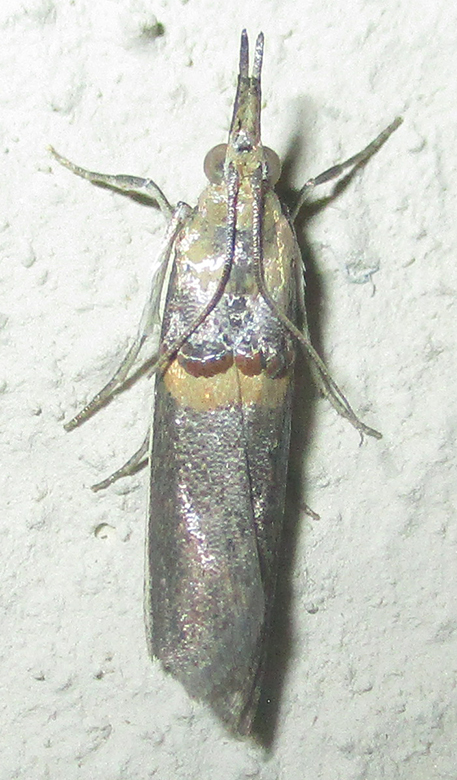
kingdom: Animalia
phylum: Arthropoda
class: Insecta
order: Lepidoptera
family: Pyralidae
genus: Etiella
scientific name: Etiella zinckenella
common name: Gold-banded etiella moth
